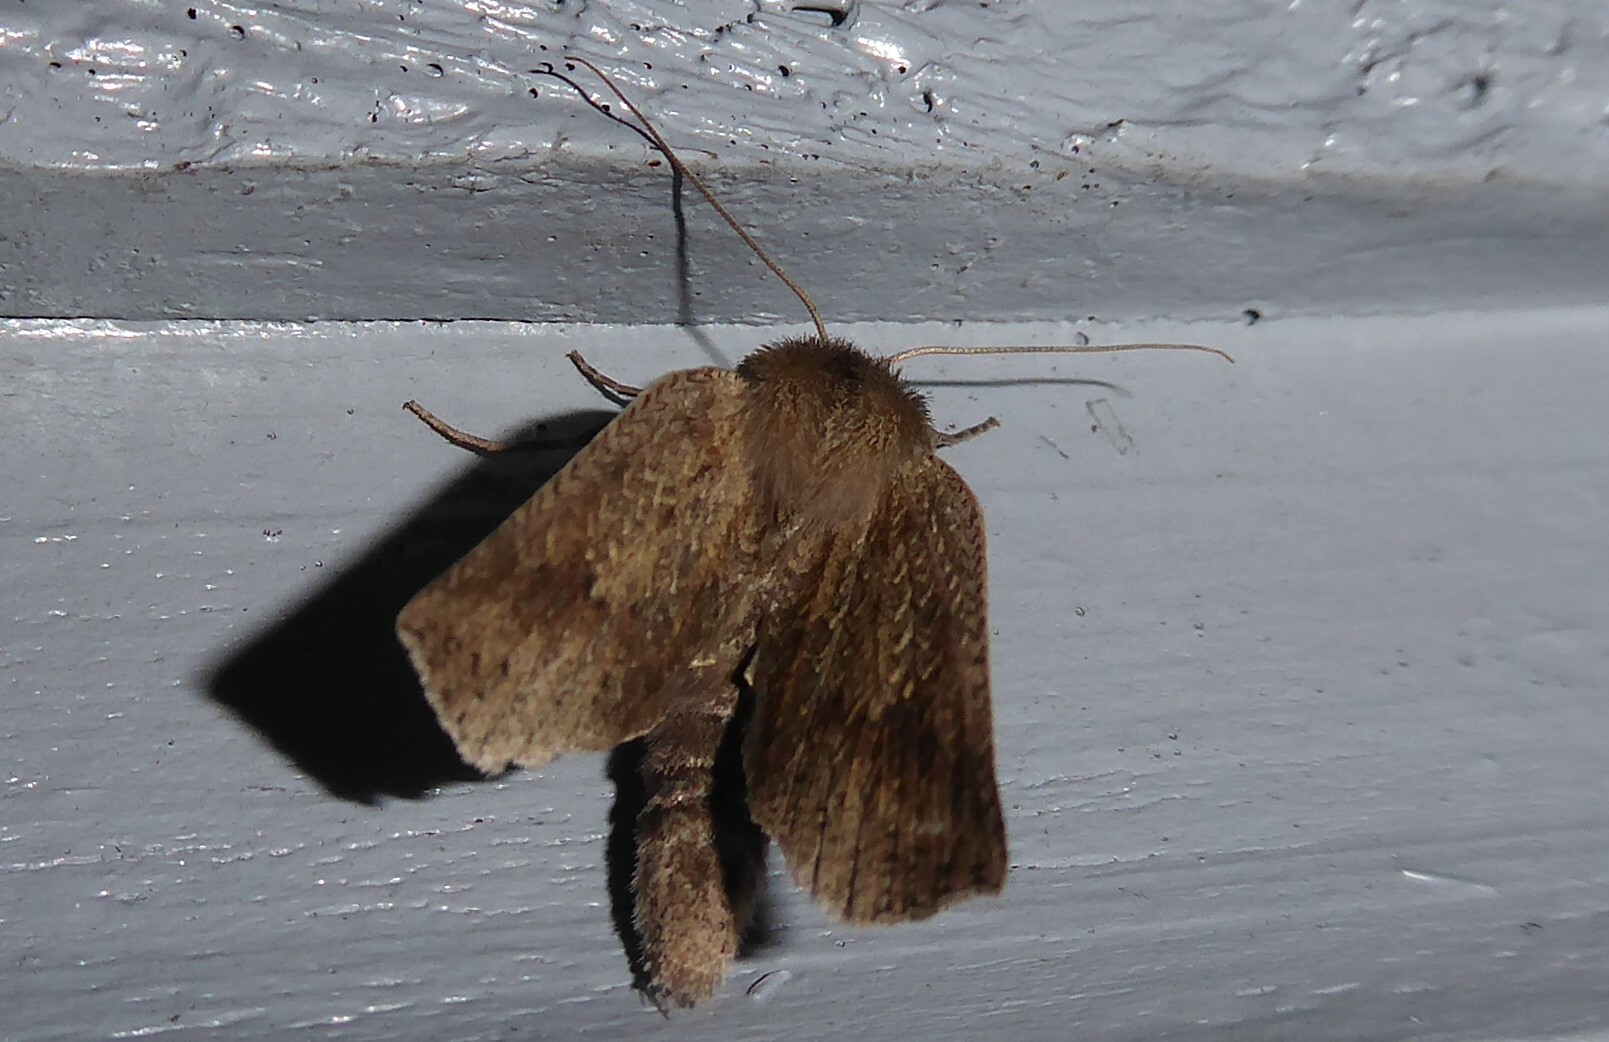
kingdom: Animalia
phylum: Arthropoda
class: Insecta
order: Lepidoptera
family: Geometridae
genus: Declana
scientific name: Declana leptomera
